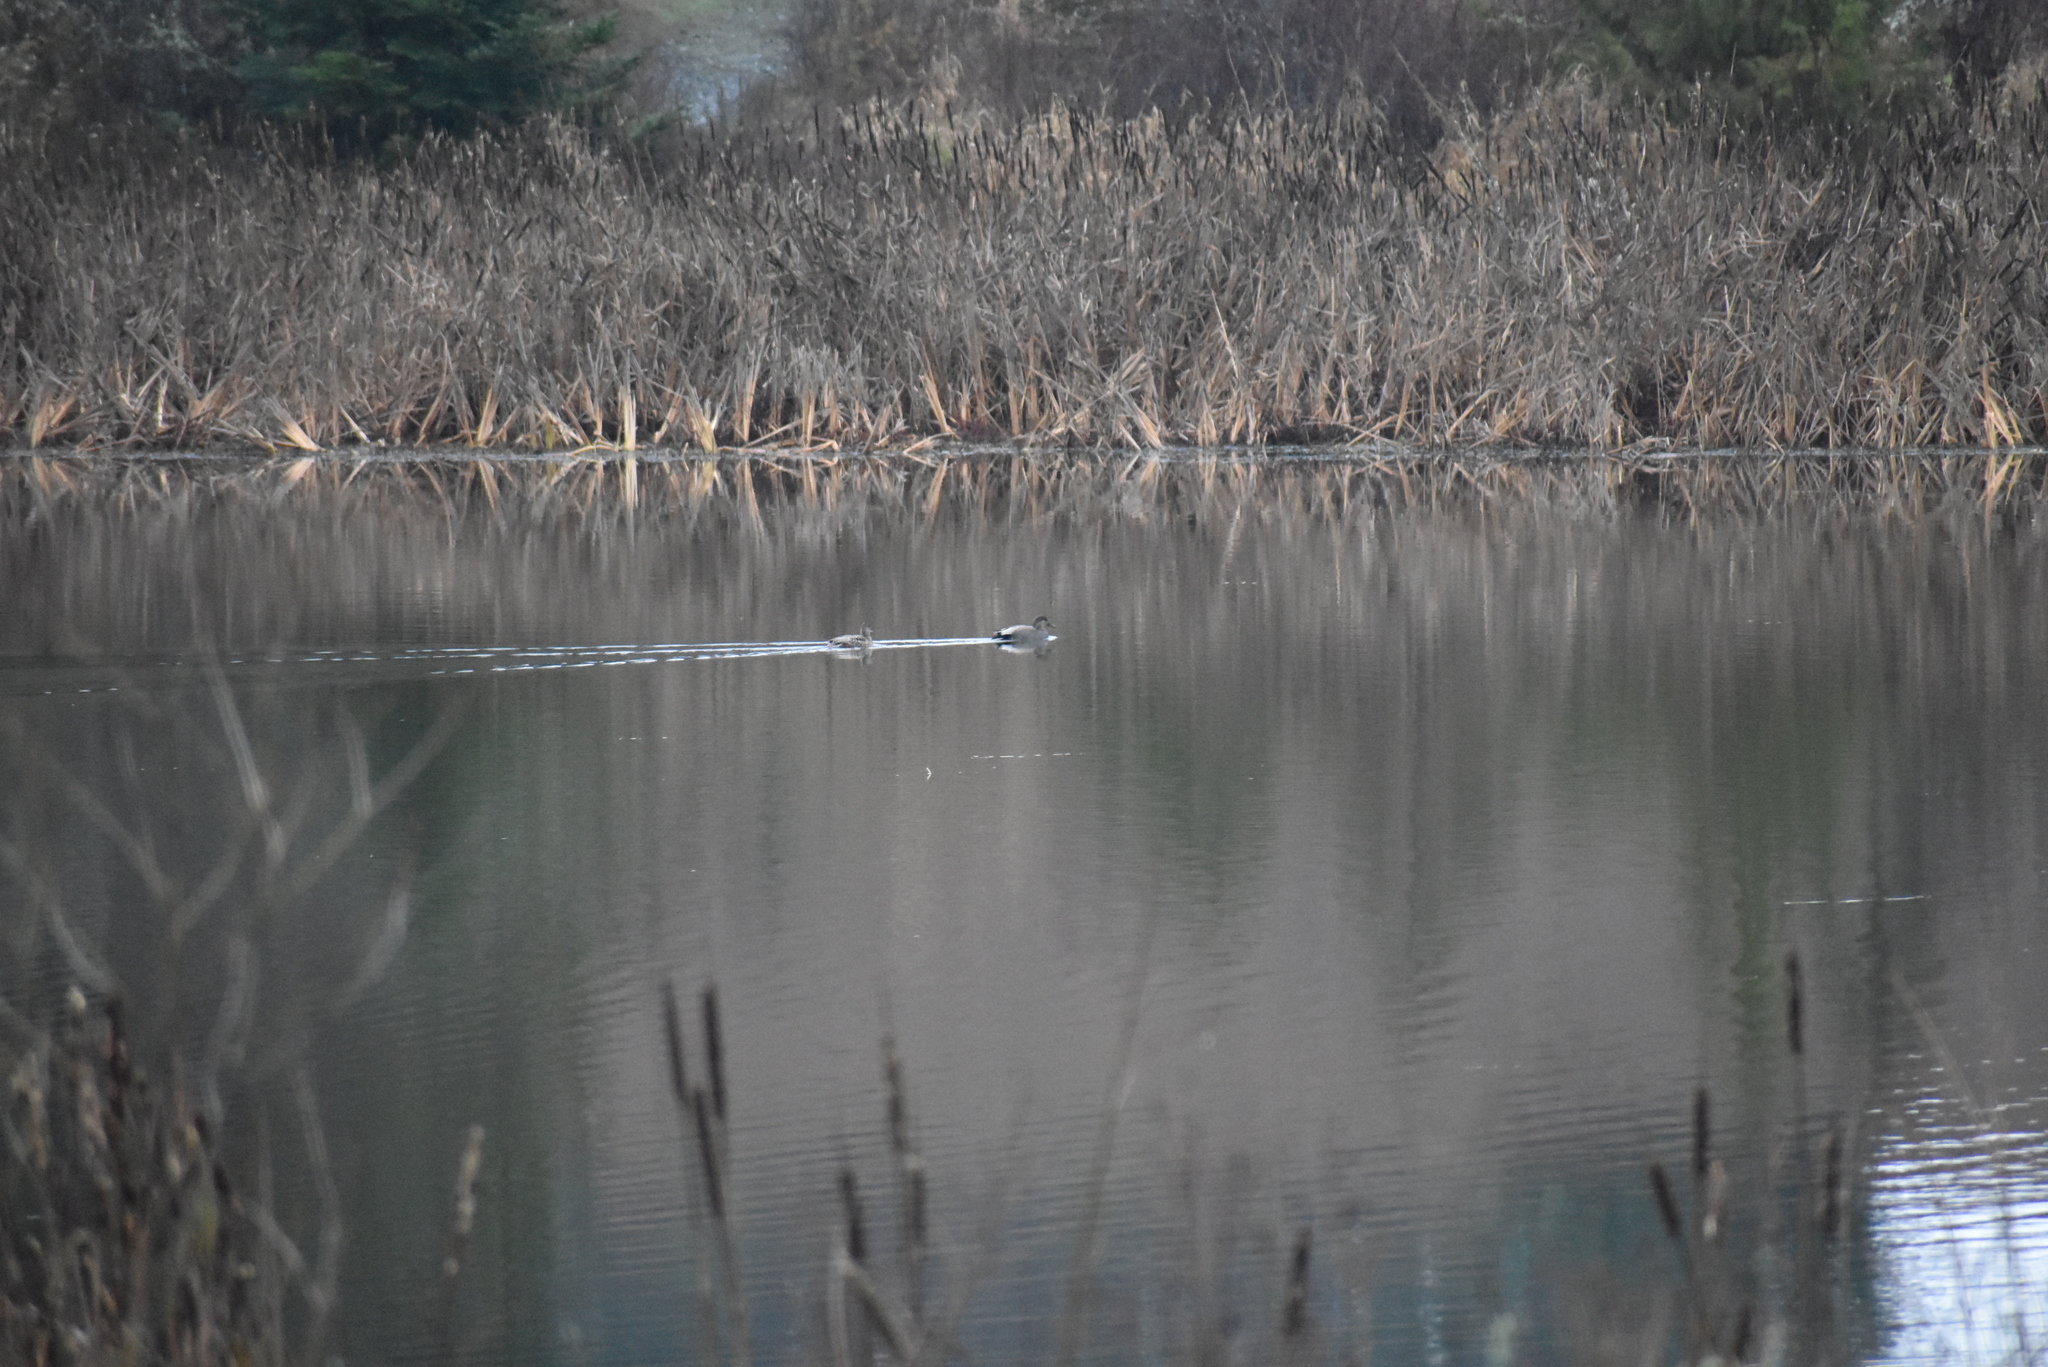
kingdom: Animalia
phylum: Chordata
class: Aves
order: Anseriformes
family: Anatidae
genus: Mareca
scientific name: Mareca strepera
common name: Gadwall
